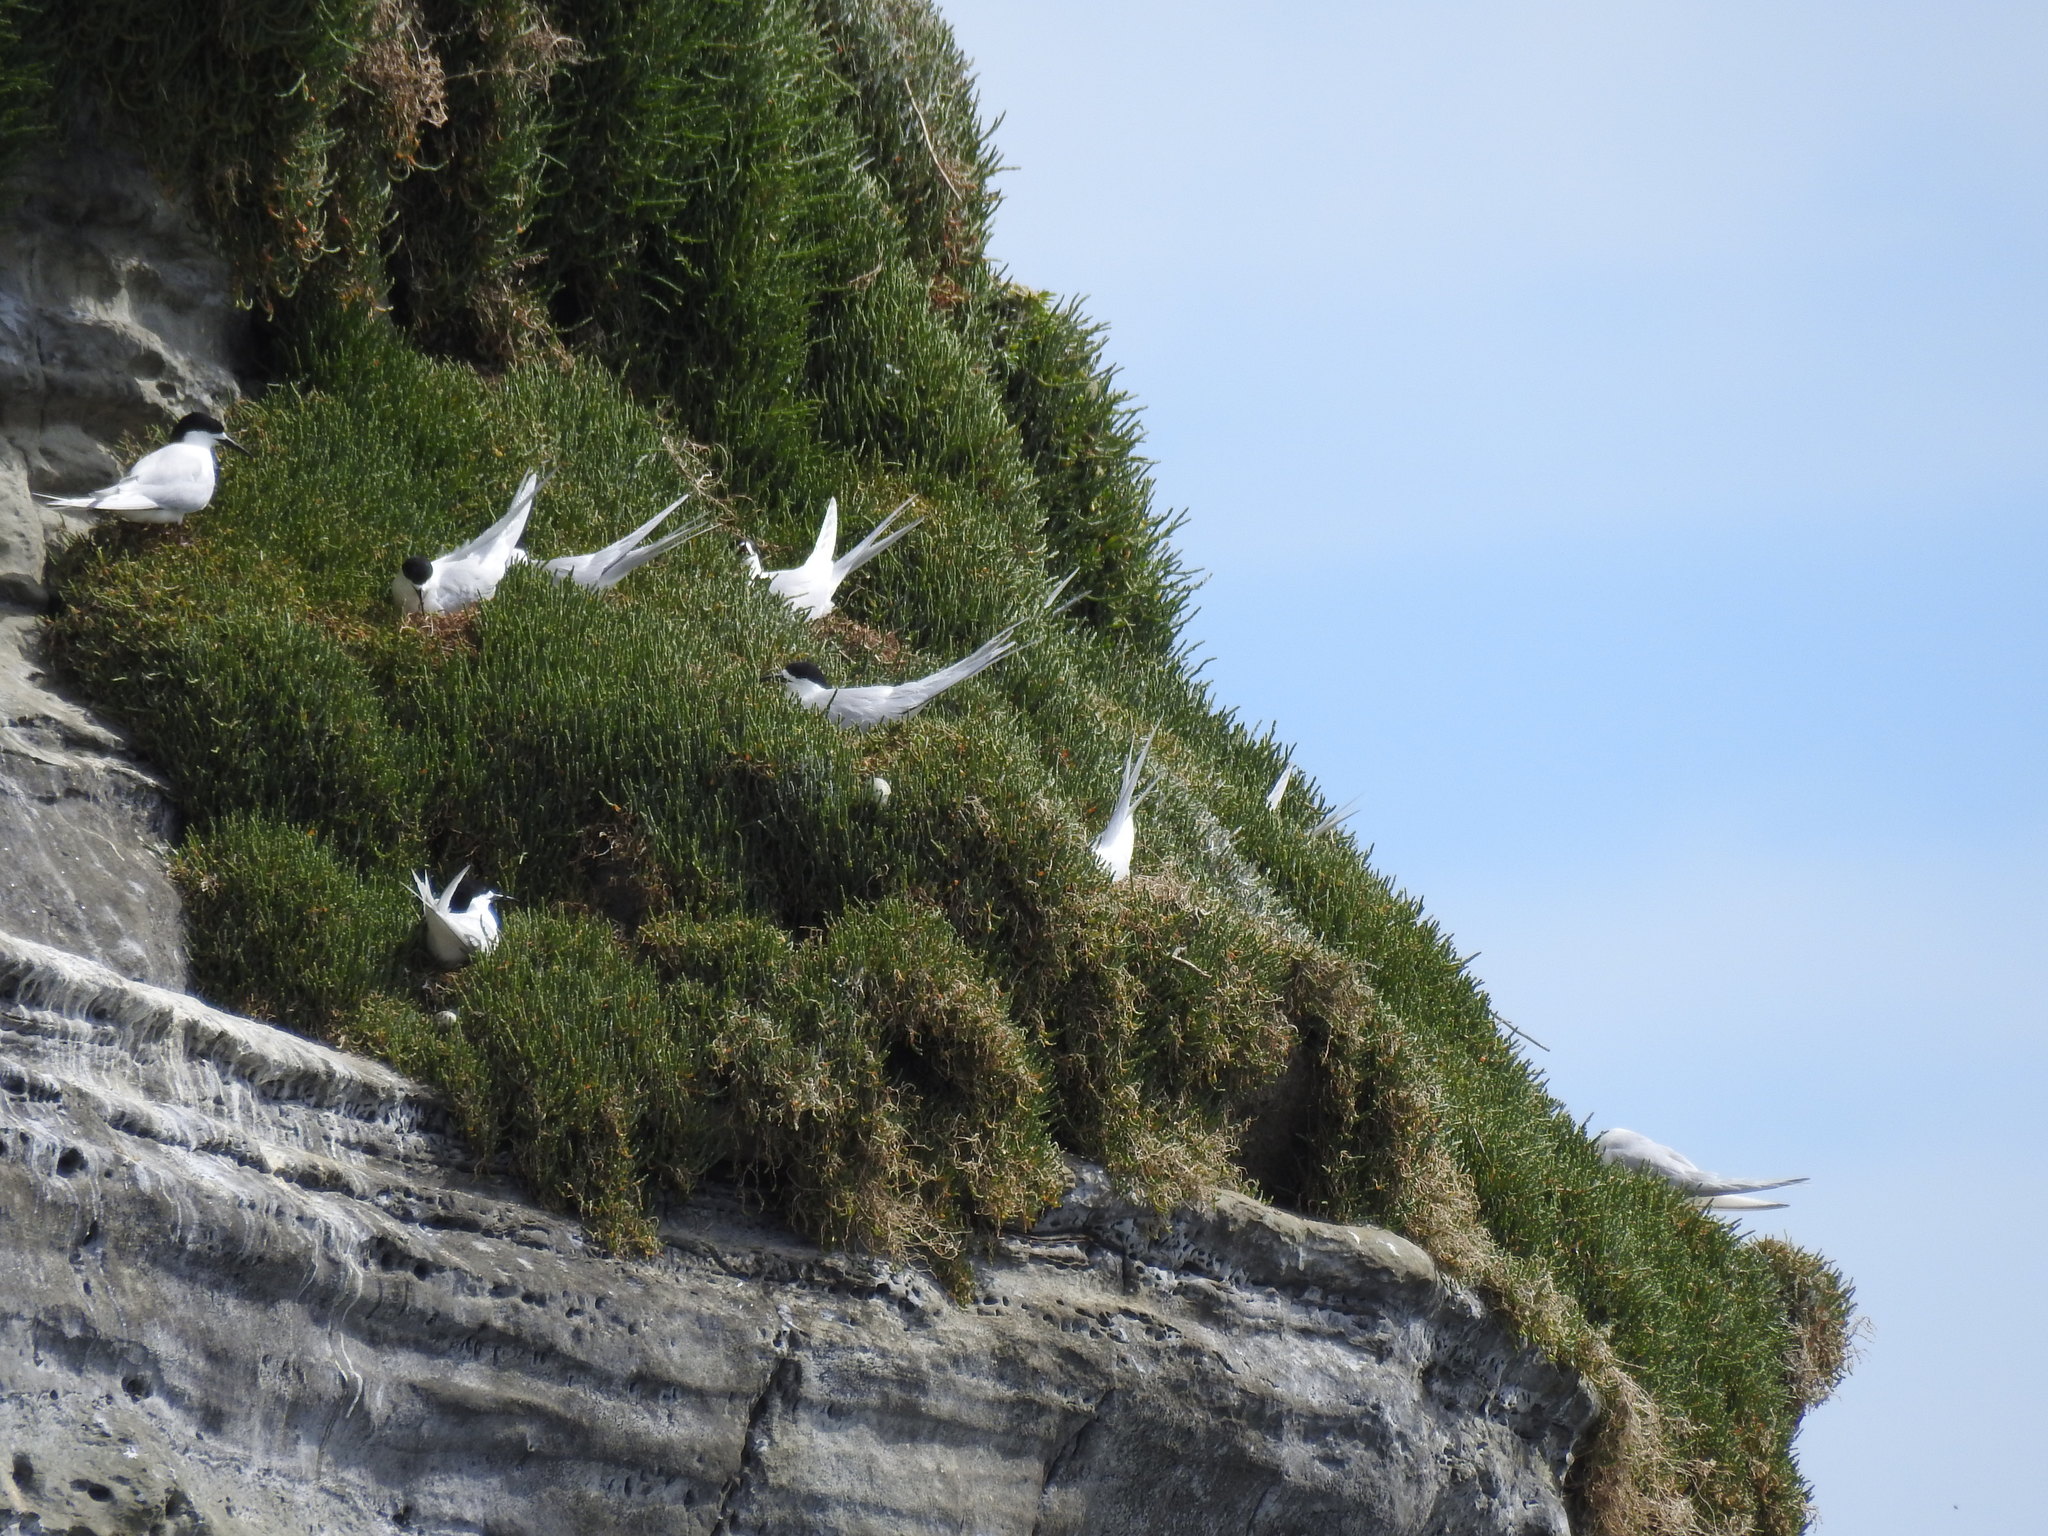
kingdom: Animalia
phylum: Chordata
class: Aves
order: Charadriiformes
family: Laridae
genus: Sterna
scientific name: Sterna striata
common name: White-fronted tern
